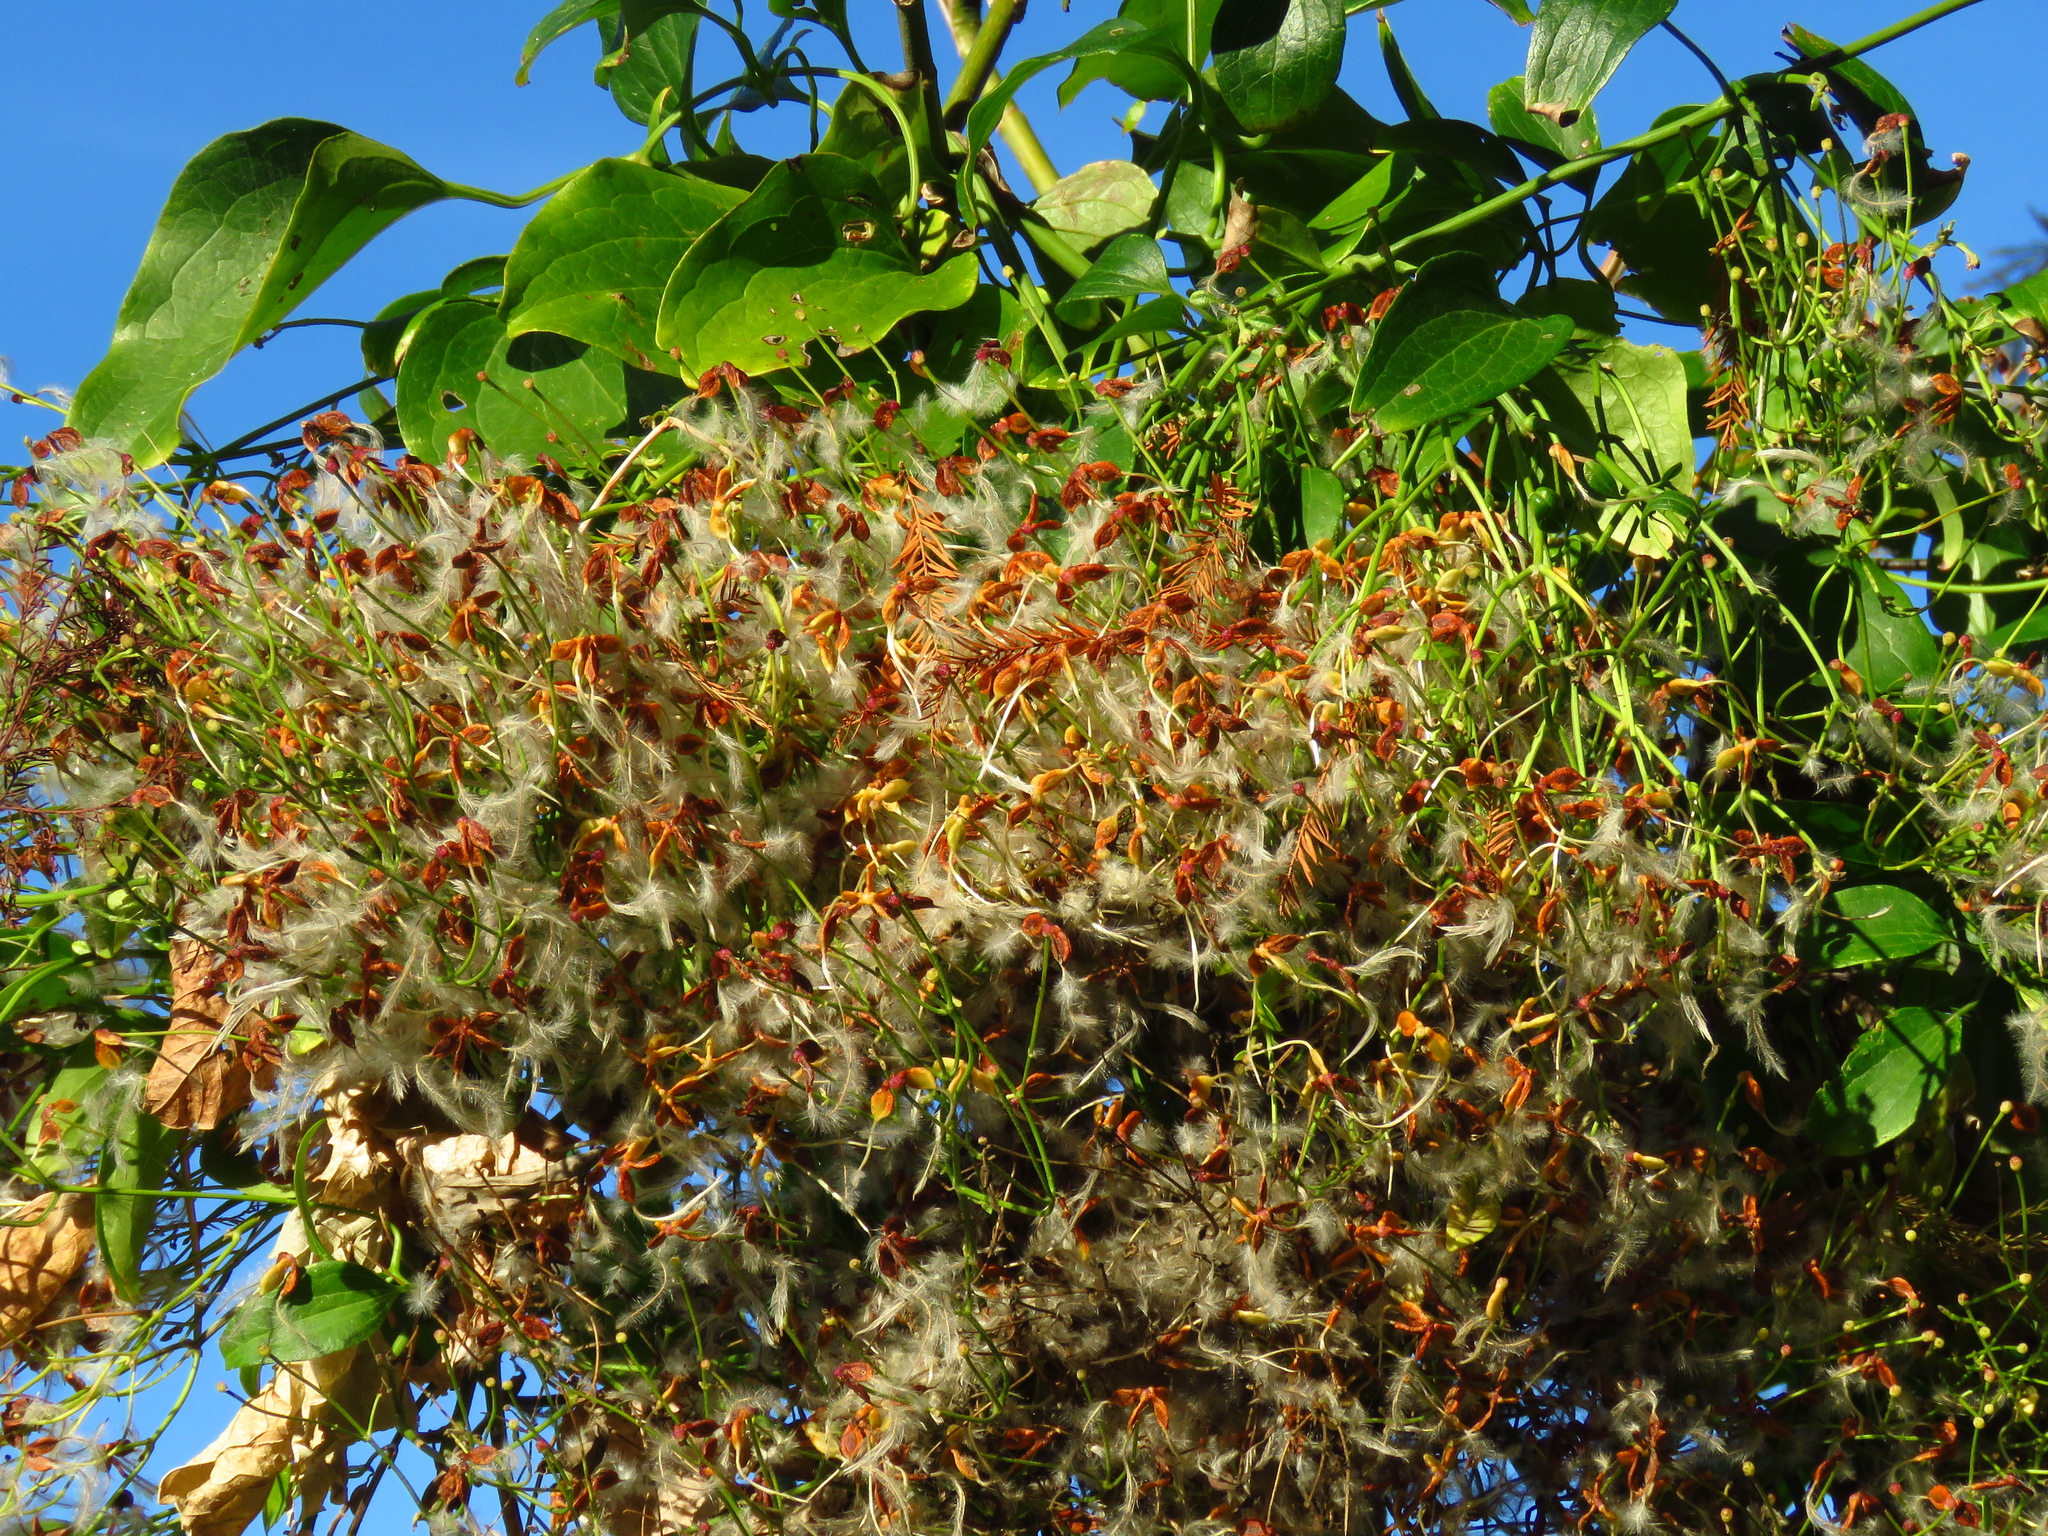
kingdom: Plantae
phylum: Tracheophyta
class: Magnoliopsida
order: Ranunculales
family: Ranunculaceae
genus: Clematis
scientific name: Clematis terniflora
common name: Sweet autumn clematis
